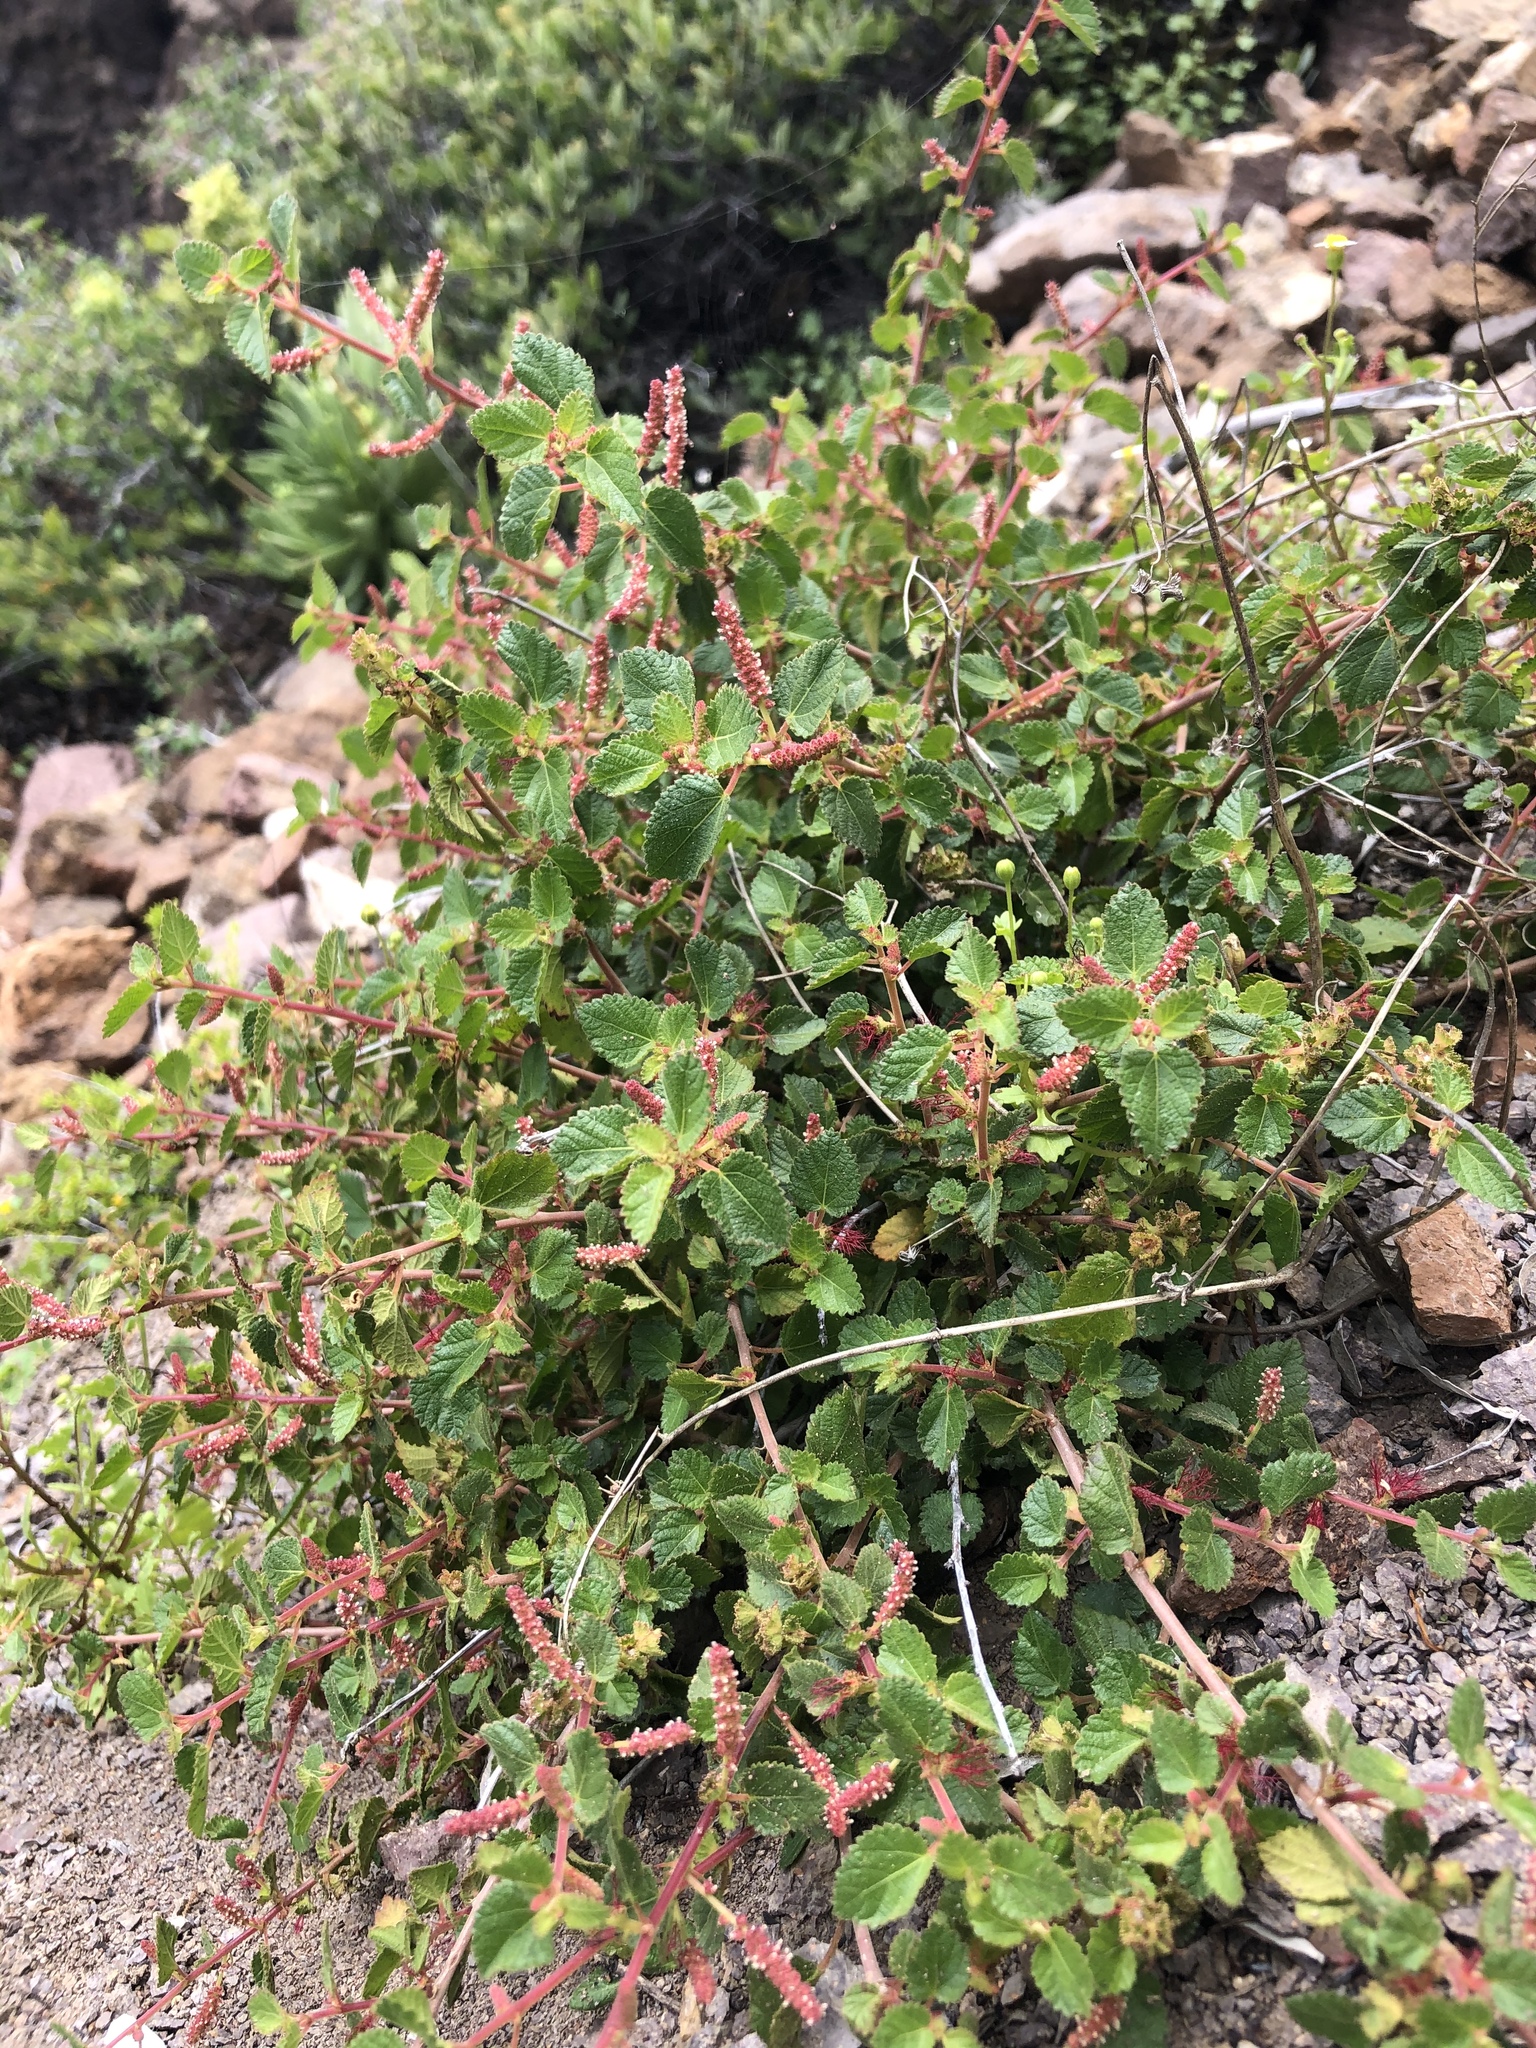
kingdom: Plantae
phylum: Tracheophyta
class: Magnoliopsida
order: Malpighiales
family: Euphorbiaceae
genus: Acalypha
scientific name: Acalypha californica
